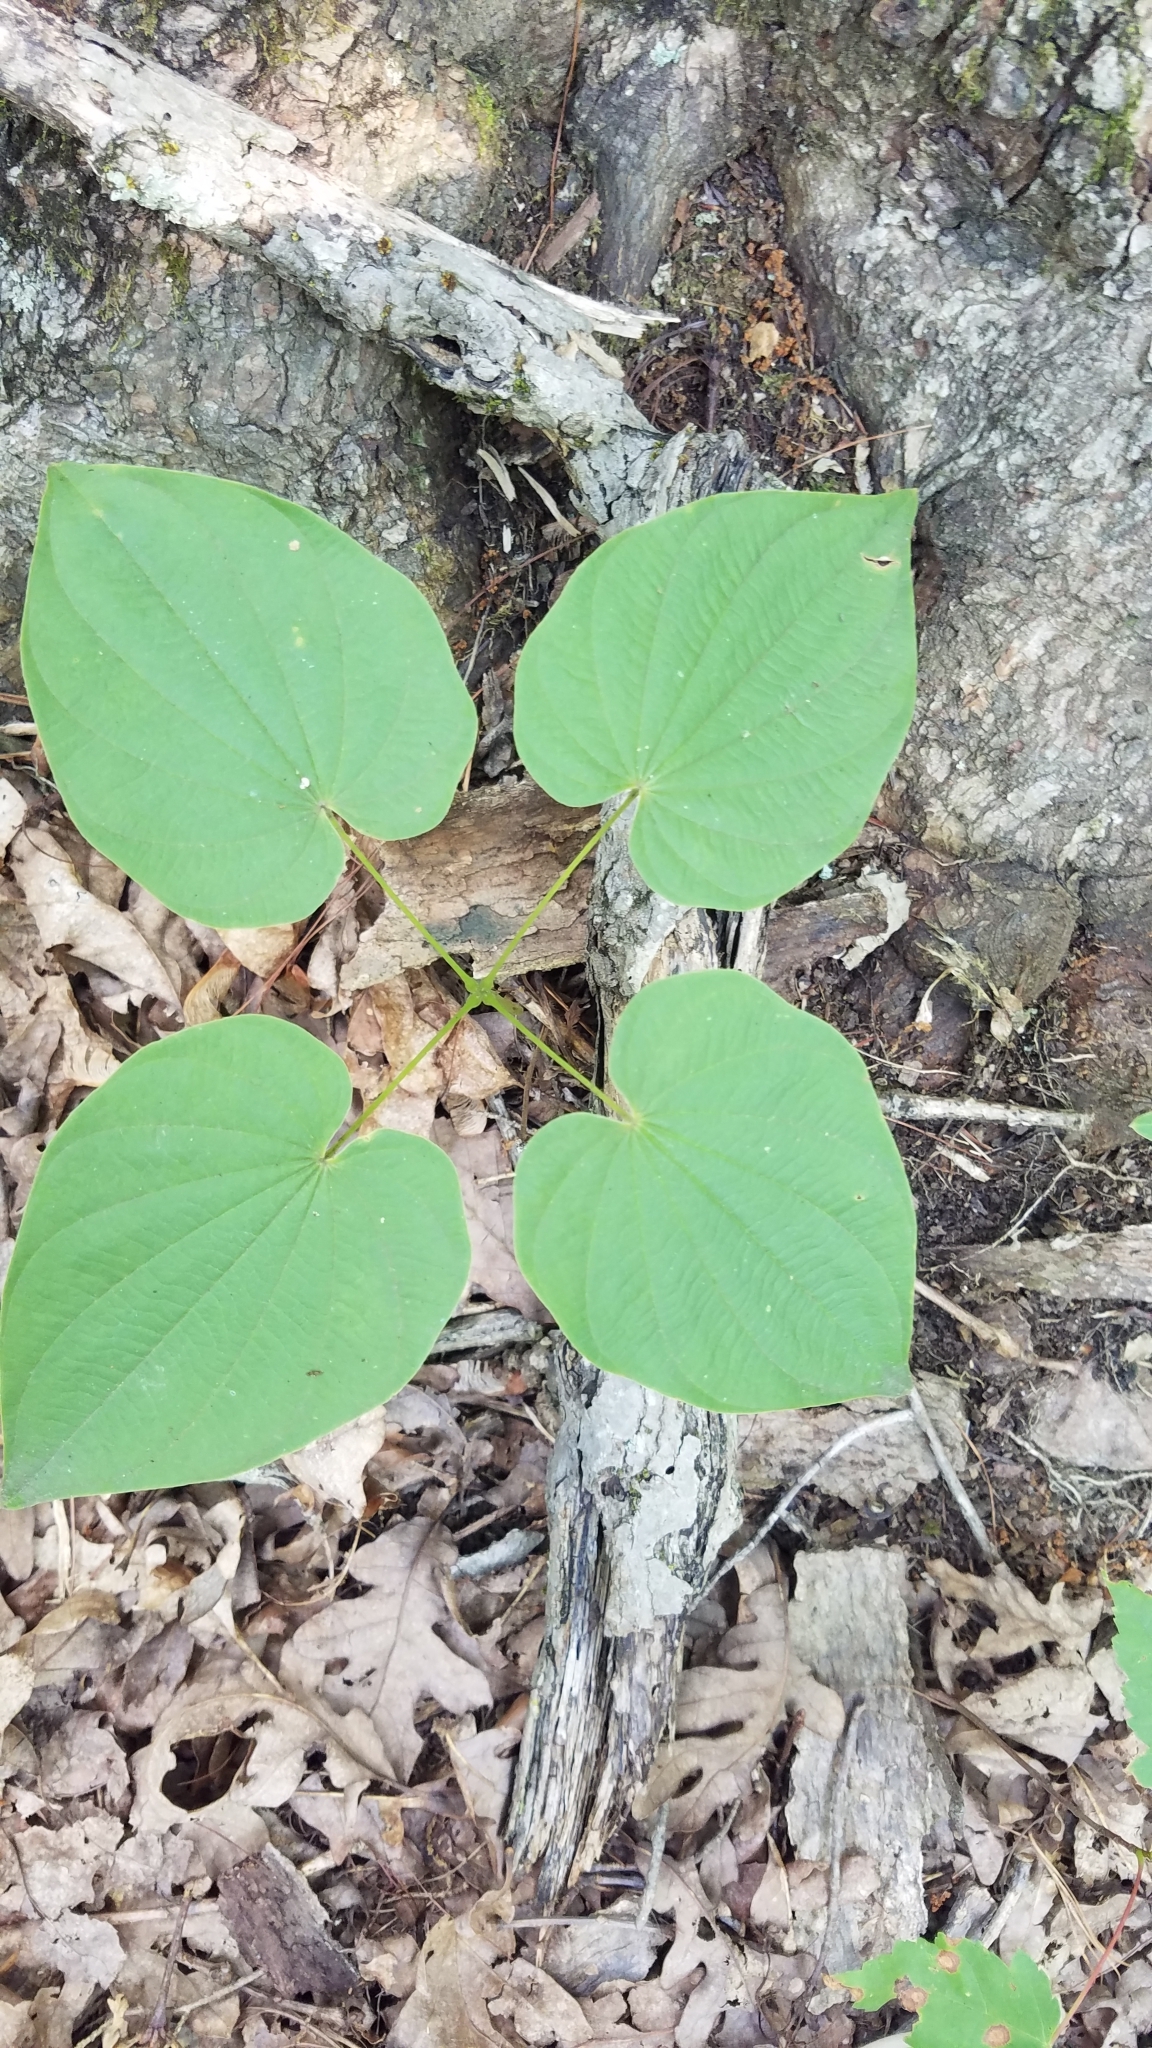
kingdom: Plantae
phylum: Tracheophyta
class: Liliopsida
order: Dioscoreales
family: Dioscoreaceae
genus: Dioscorea
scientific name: Dioscorea villosa
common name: Wild yam
